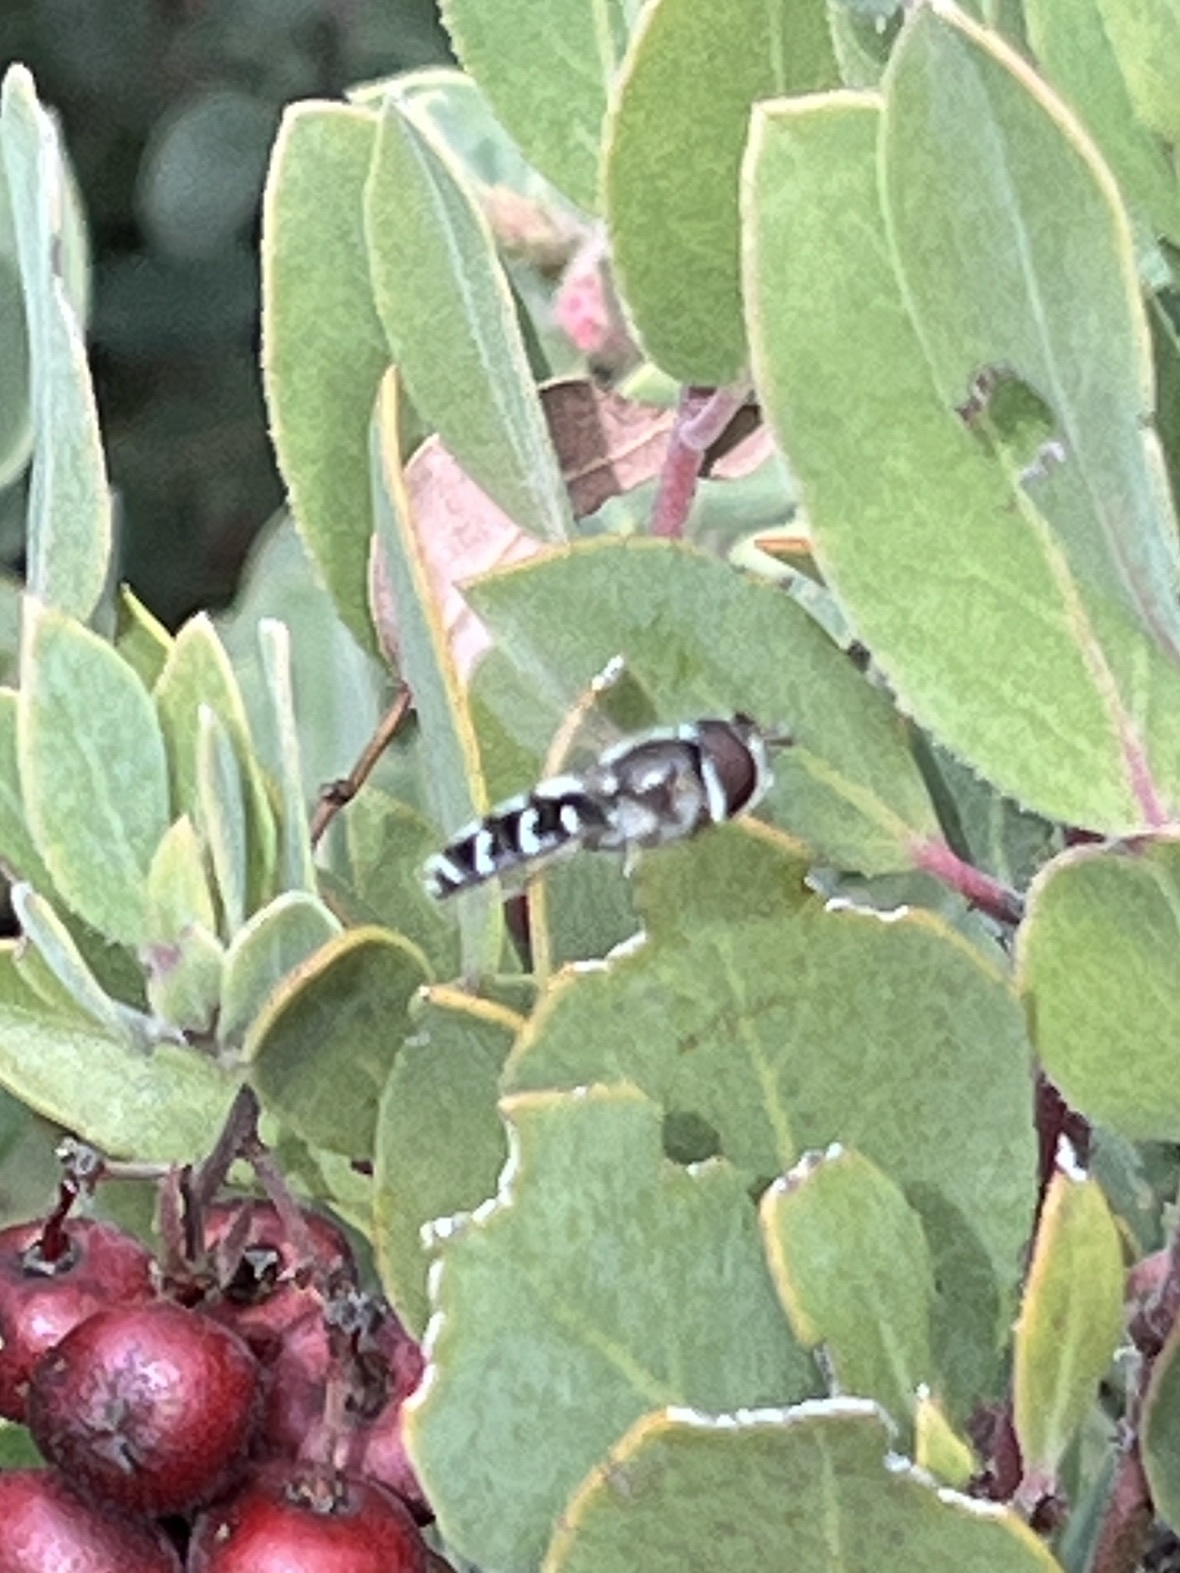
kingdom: Animalia
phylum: Arthropoda
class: Insecta
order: Diptera
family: Syrphidae
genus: Scaeva
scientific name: Scaeva affinis
